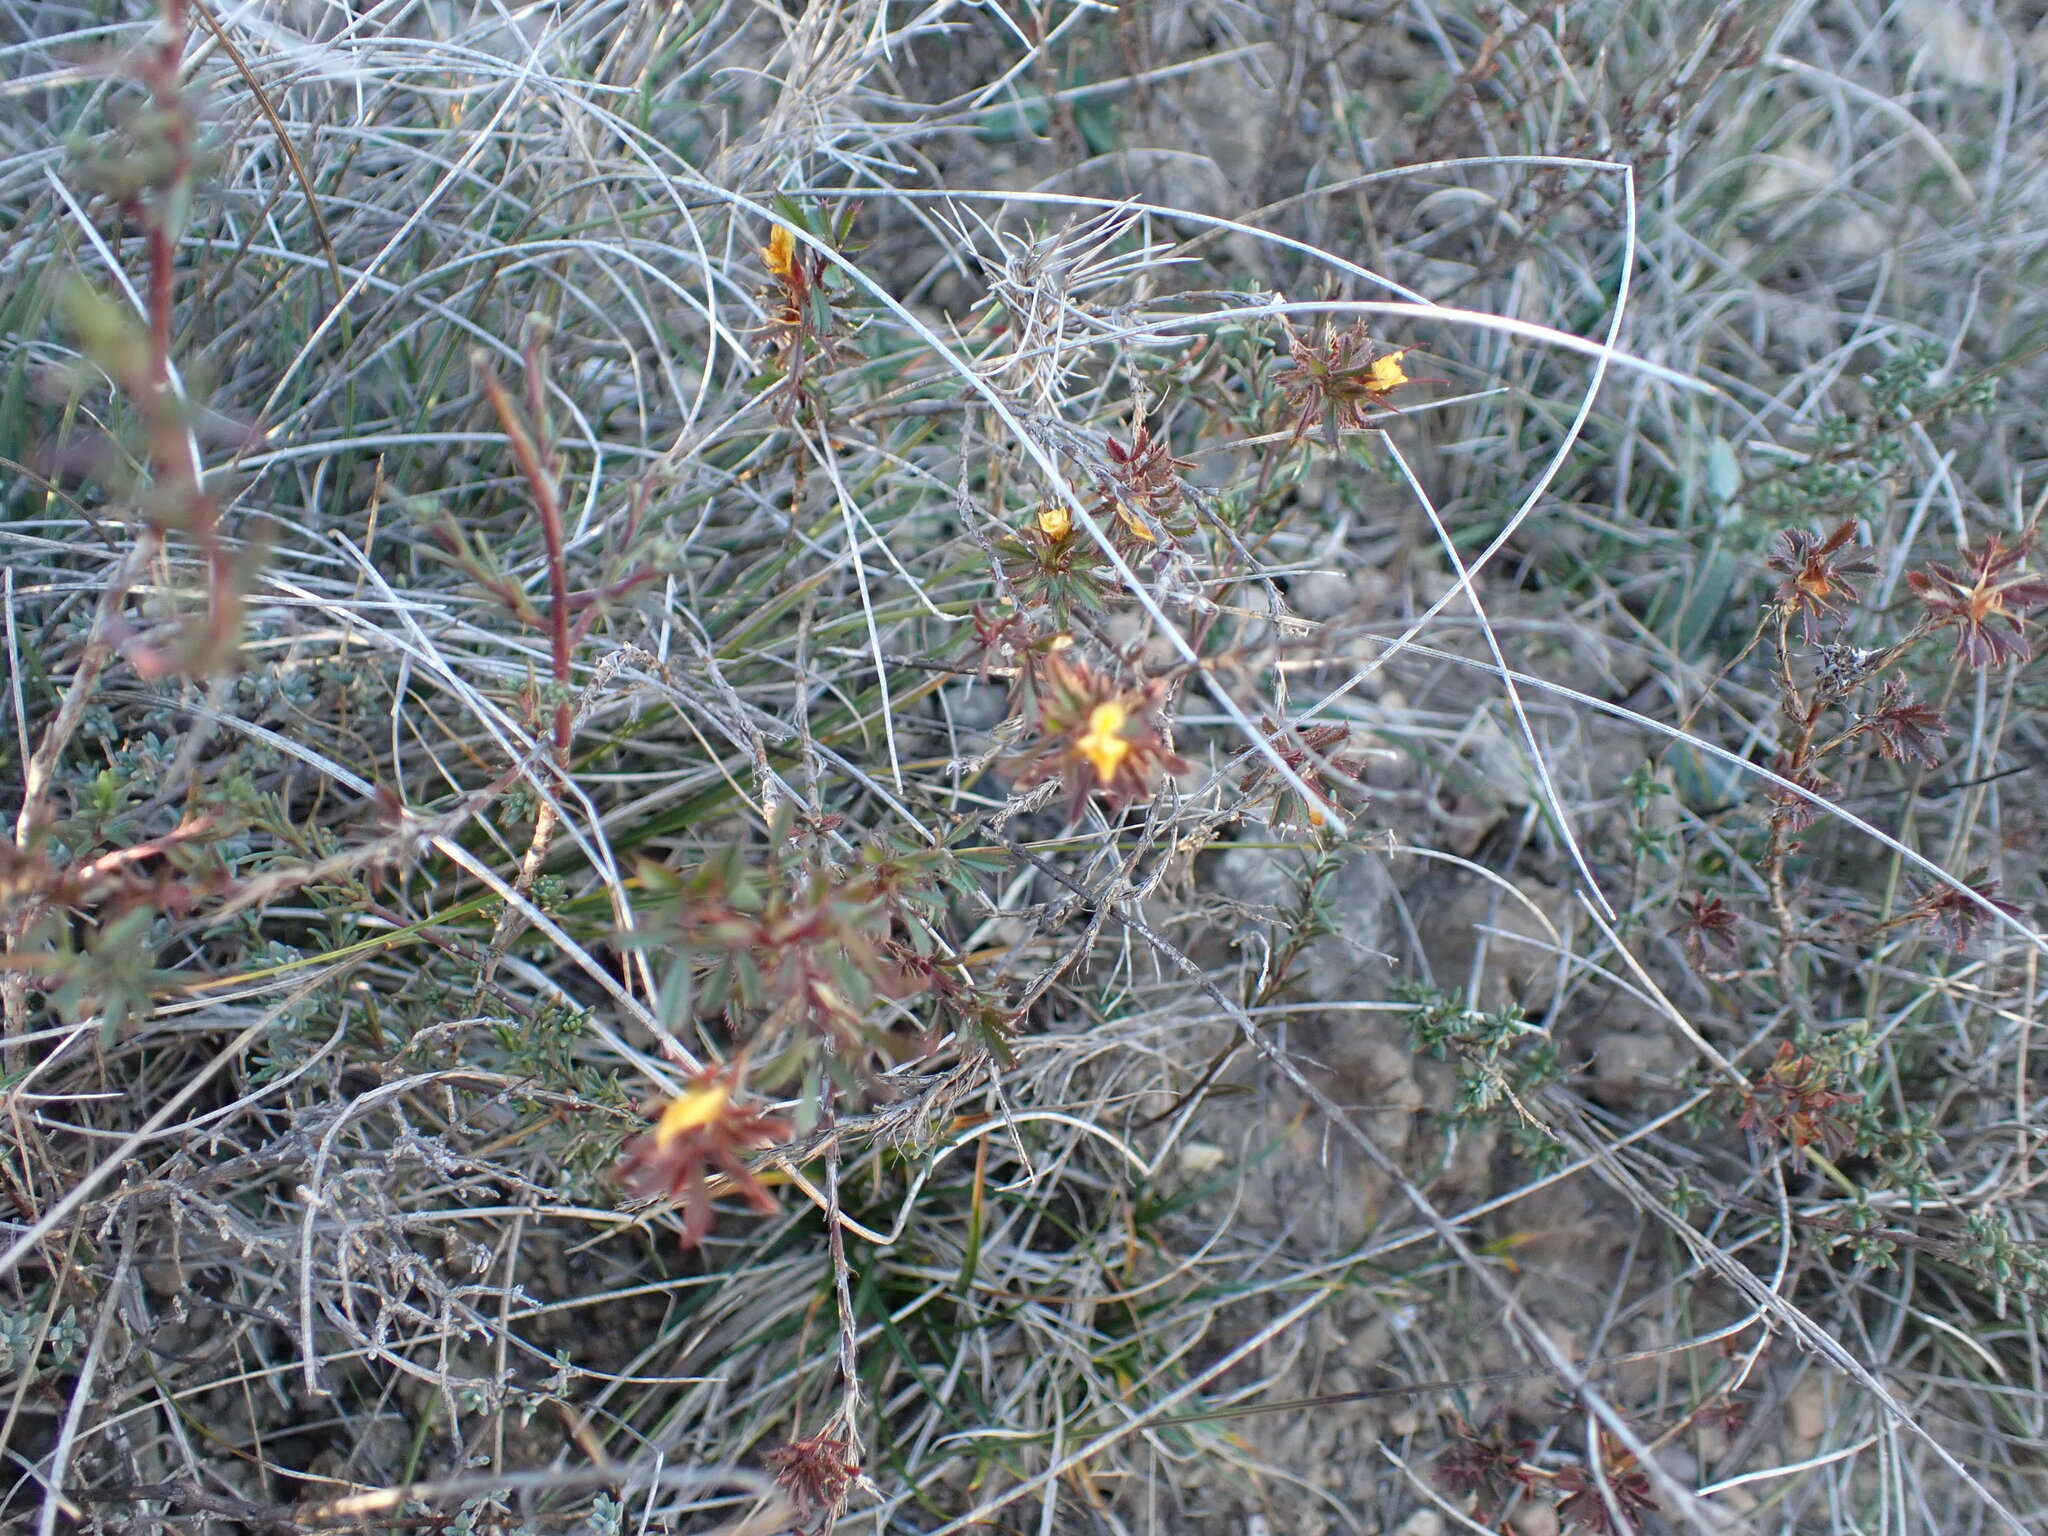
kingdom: Plantae
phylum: Tracheophyta
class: Magnoliopsida
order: Fabales
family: Fabaceae
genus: Ononis
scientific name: Ononis minutissima
